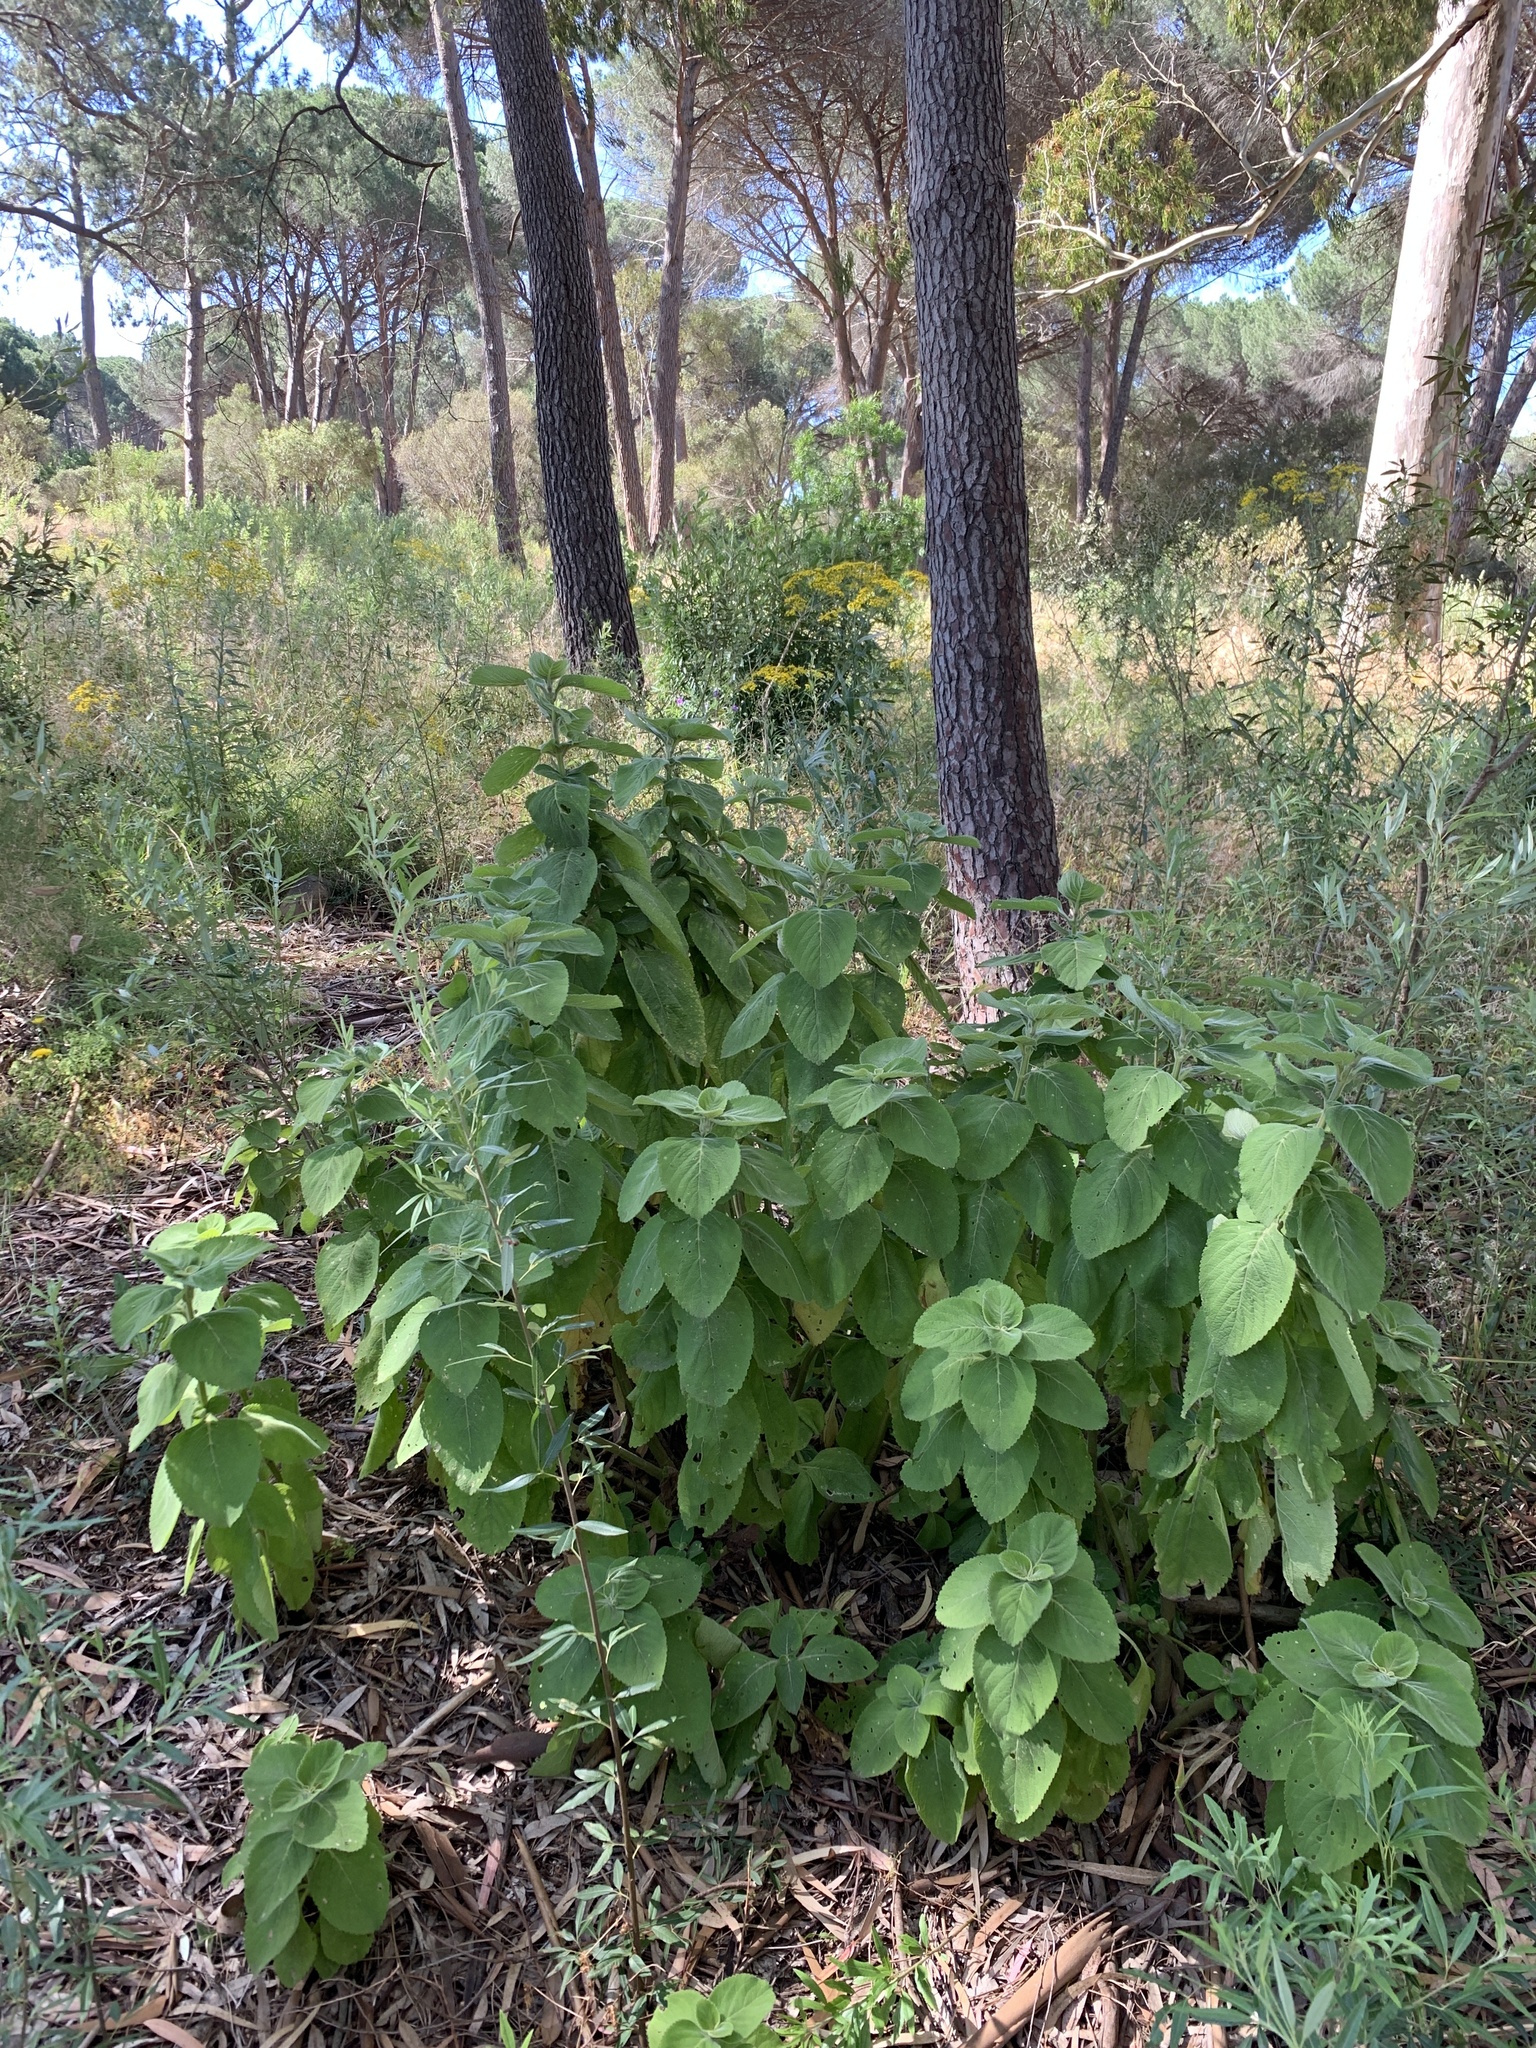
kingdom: Plantae
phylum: Tracheophyta
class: Magnoliopsida
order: Lamiales
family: Lamiaceae
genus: Coleus
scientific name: Coleus barbatus
